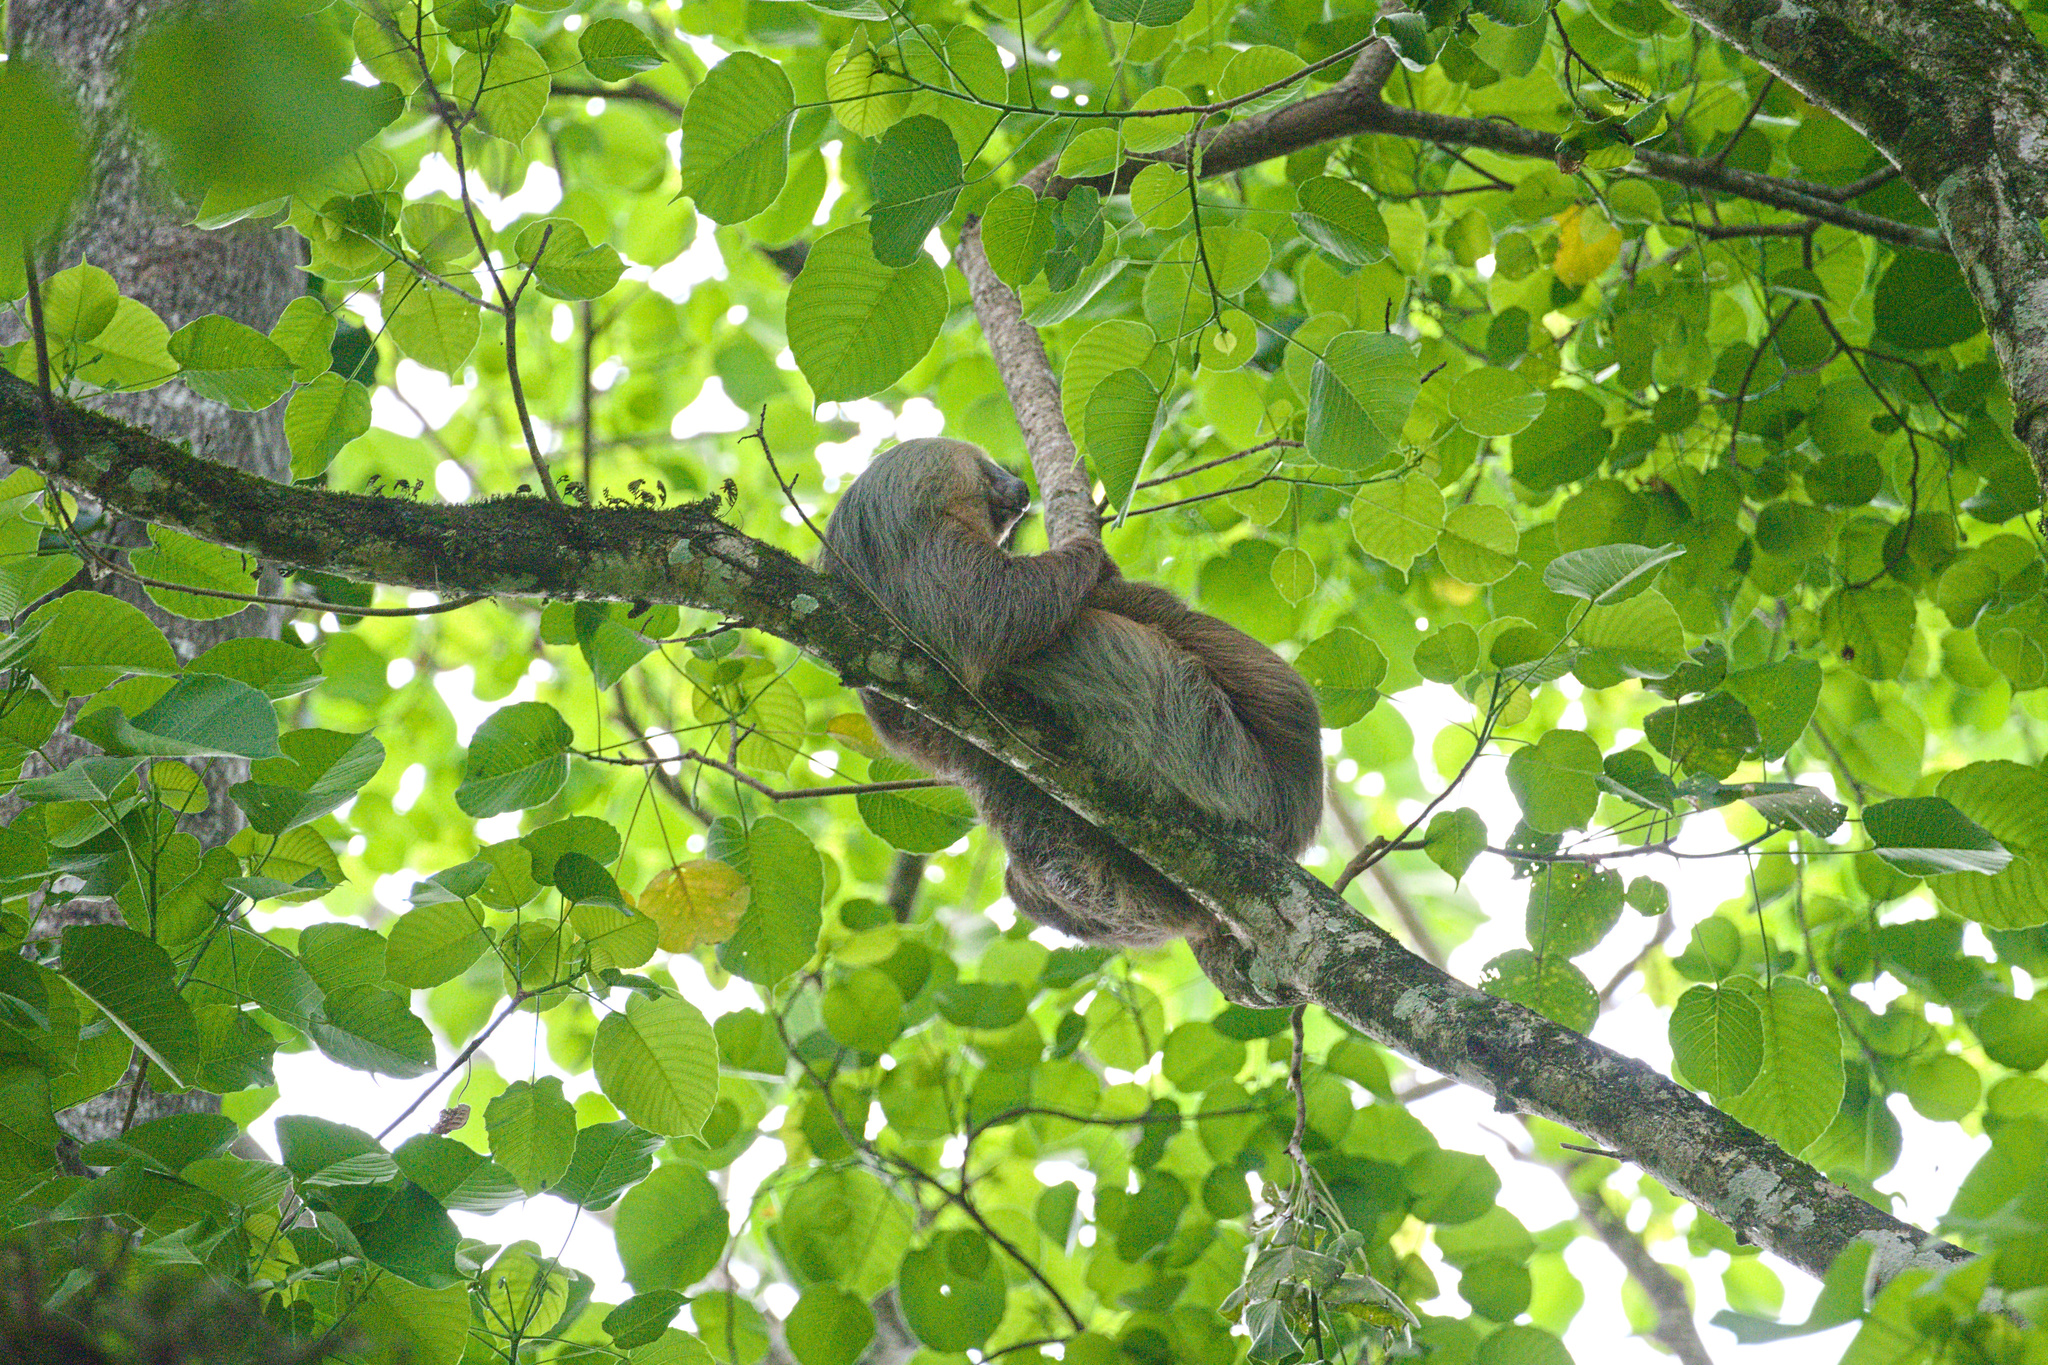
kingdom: Animalia
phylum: Chordata
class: Mammalia
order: Pilosa
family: Megalonychidae
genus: Choloepus
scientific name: Choloepus hoffmanni
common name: Hoffmann's two-toed sloth
